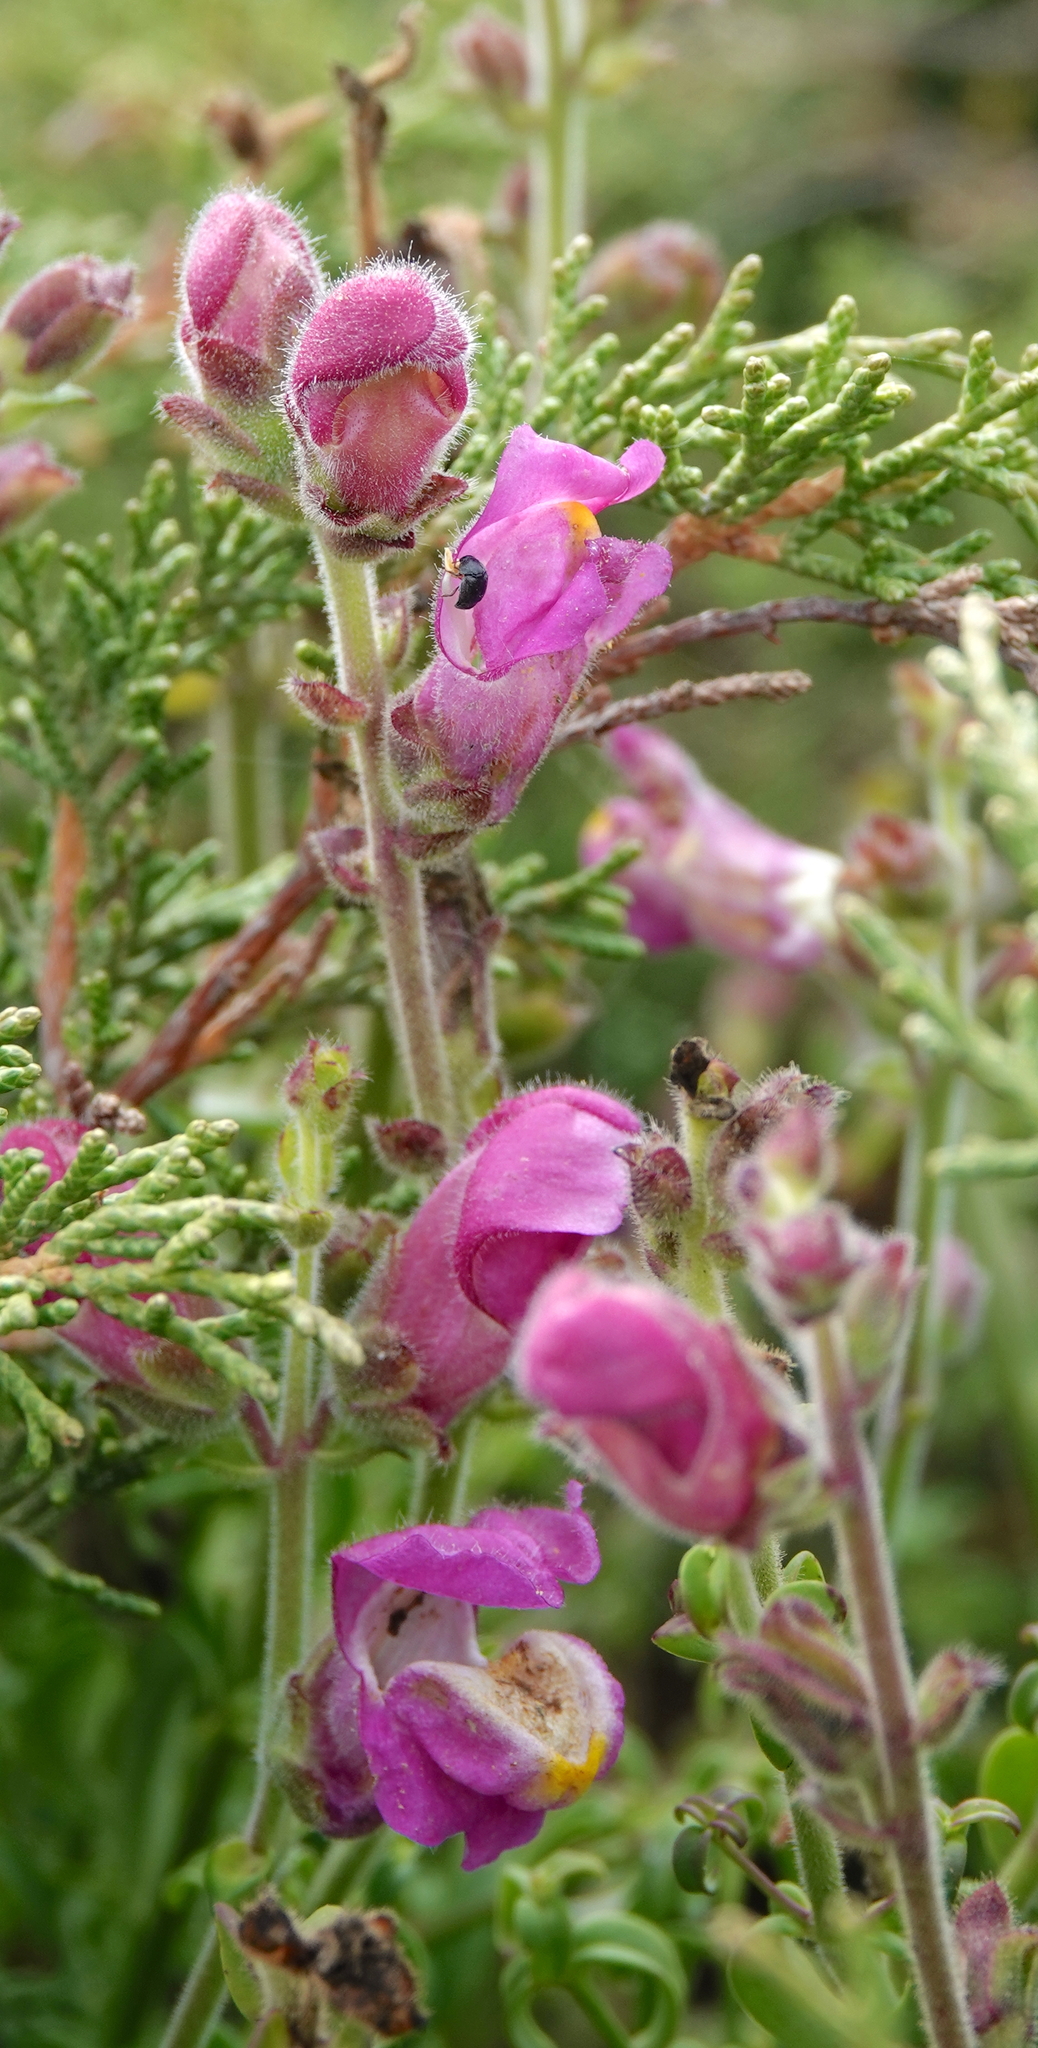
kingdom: Plantae
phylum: Tracheophyta
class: Magnoliopsida
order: Lamiales
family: Plantaginaceae
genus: Antirrhinum
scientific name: Antirrhinum cirrhigerum
